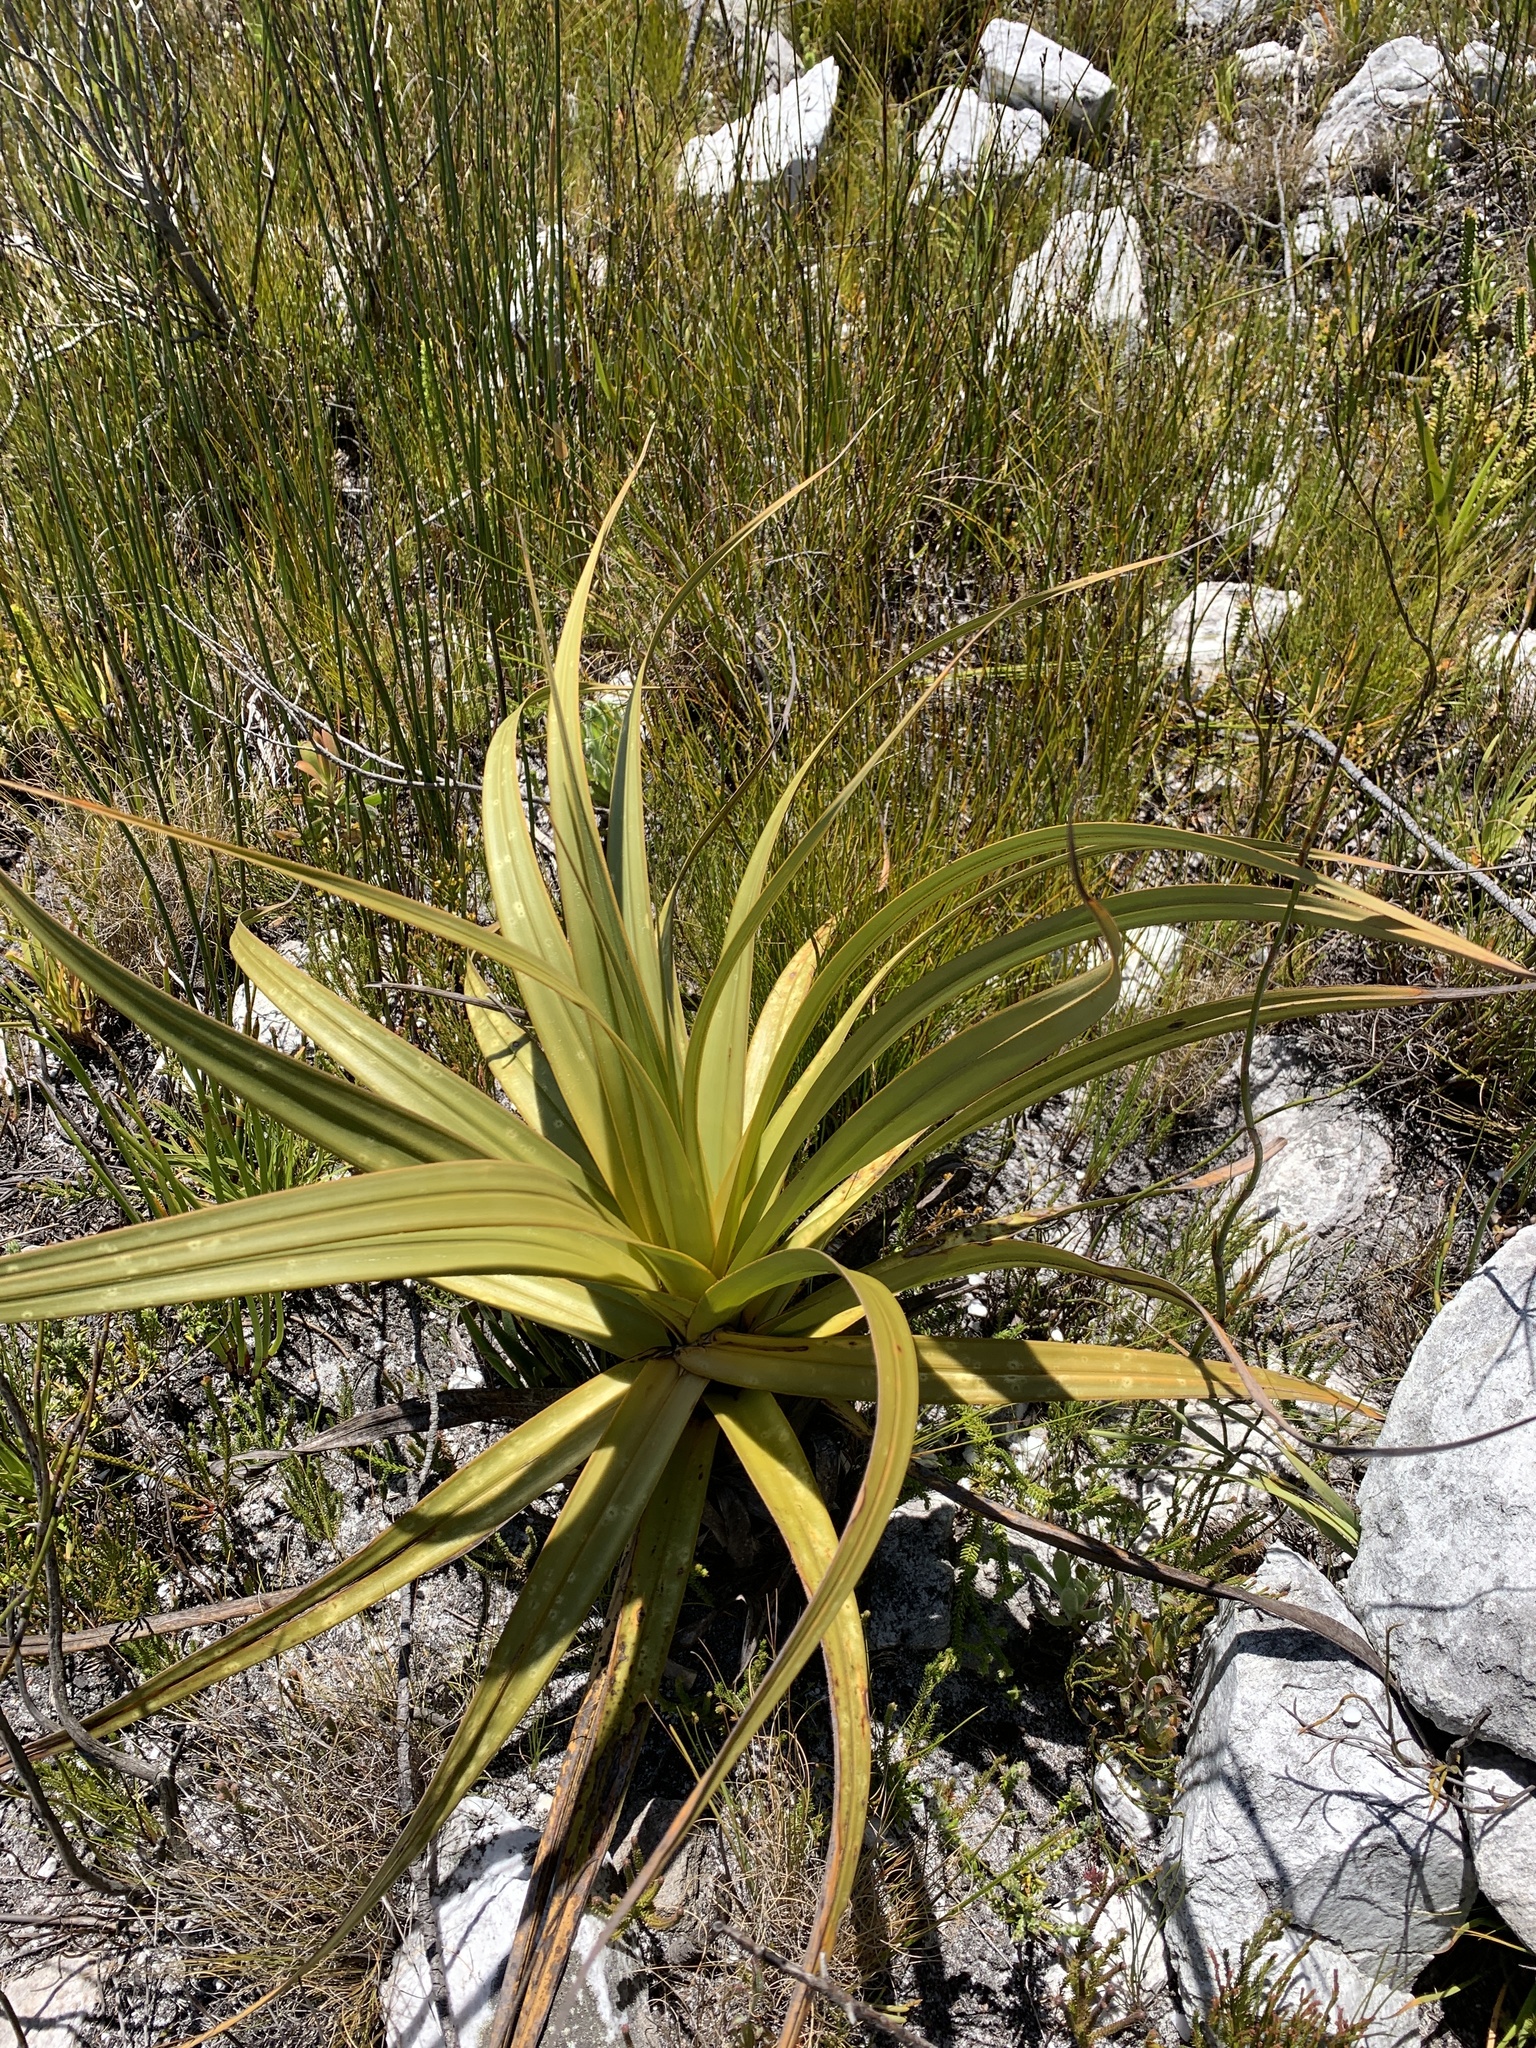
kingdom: Plantae
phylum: Tracheophyta
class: Liliopsida
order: Poales
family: Cyperaceae
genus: Tetraria
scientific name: Tetraria thermalis
